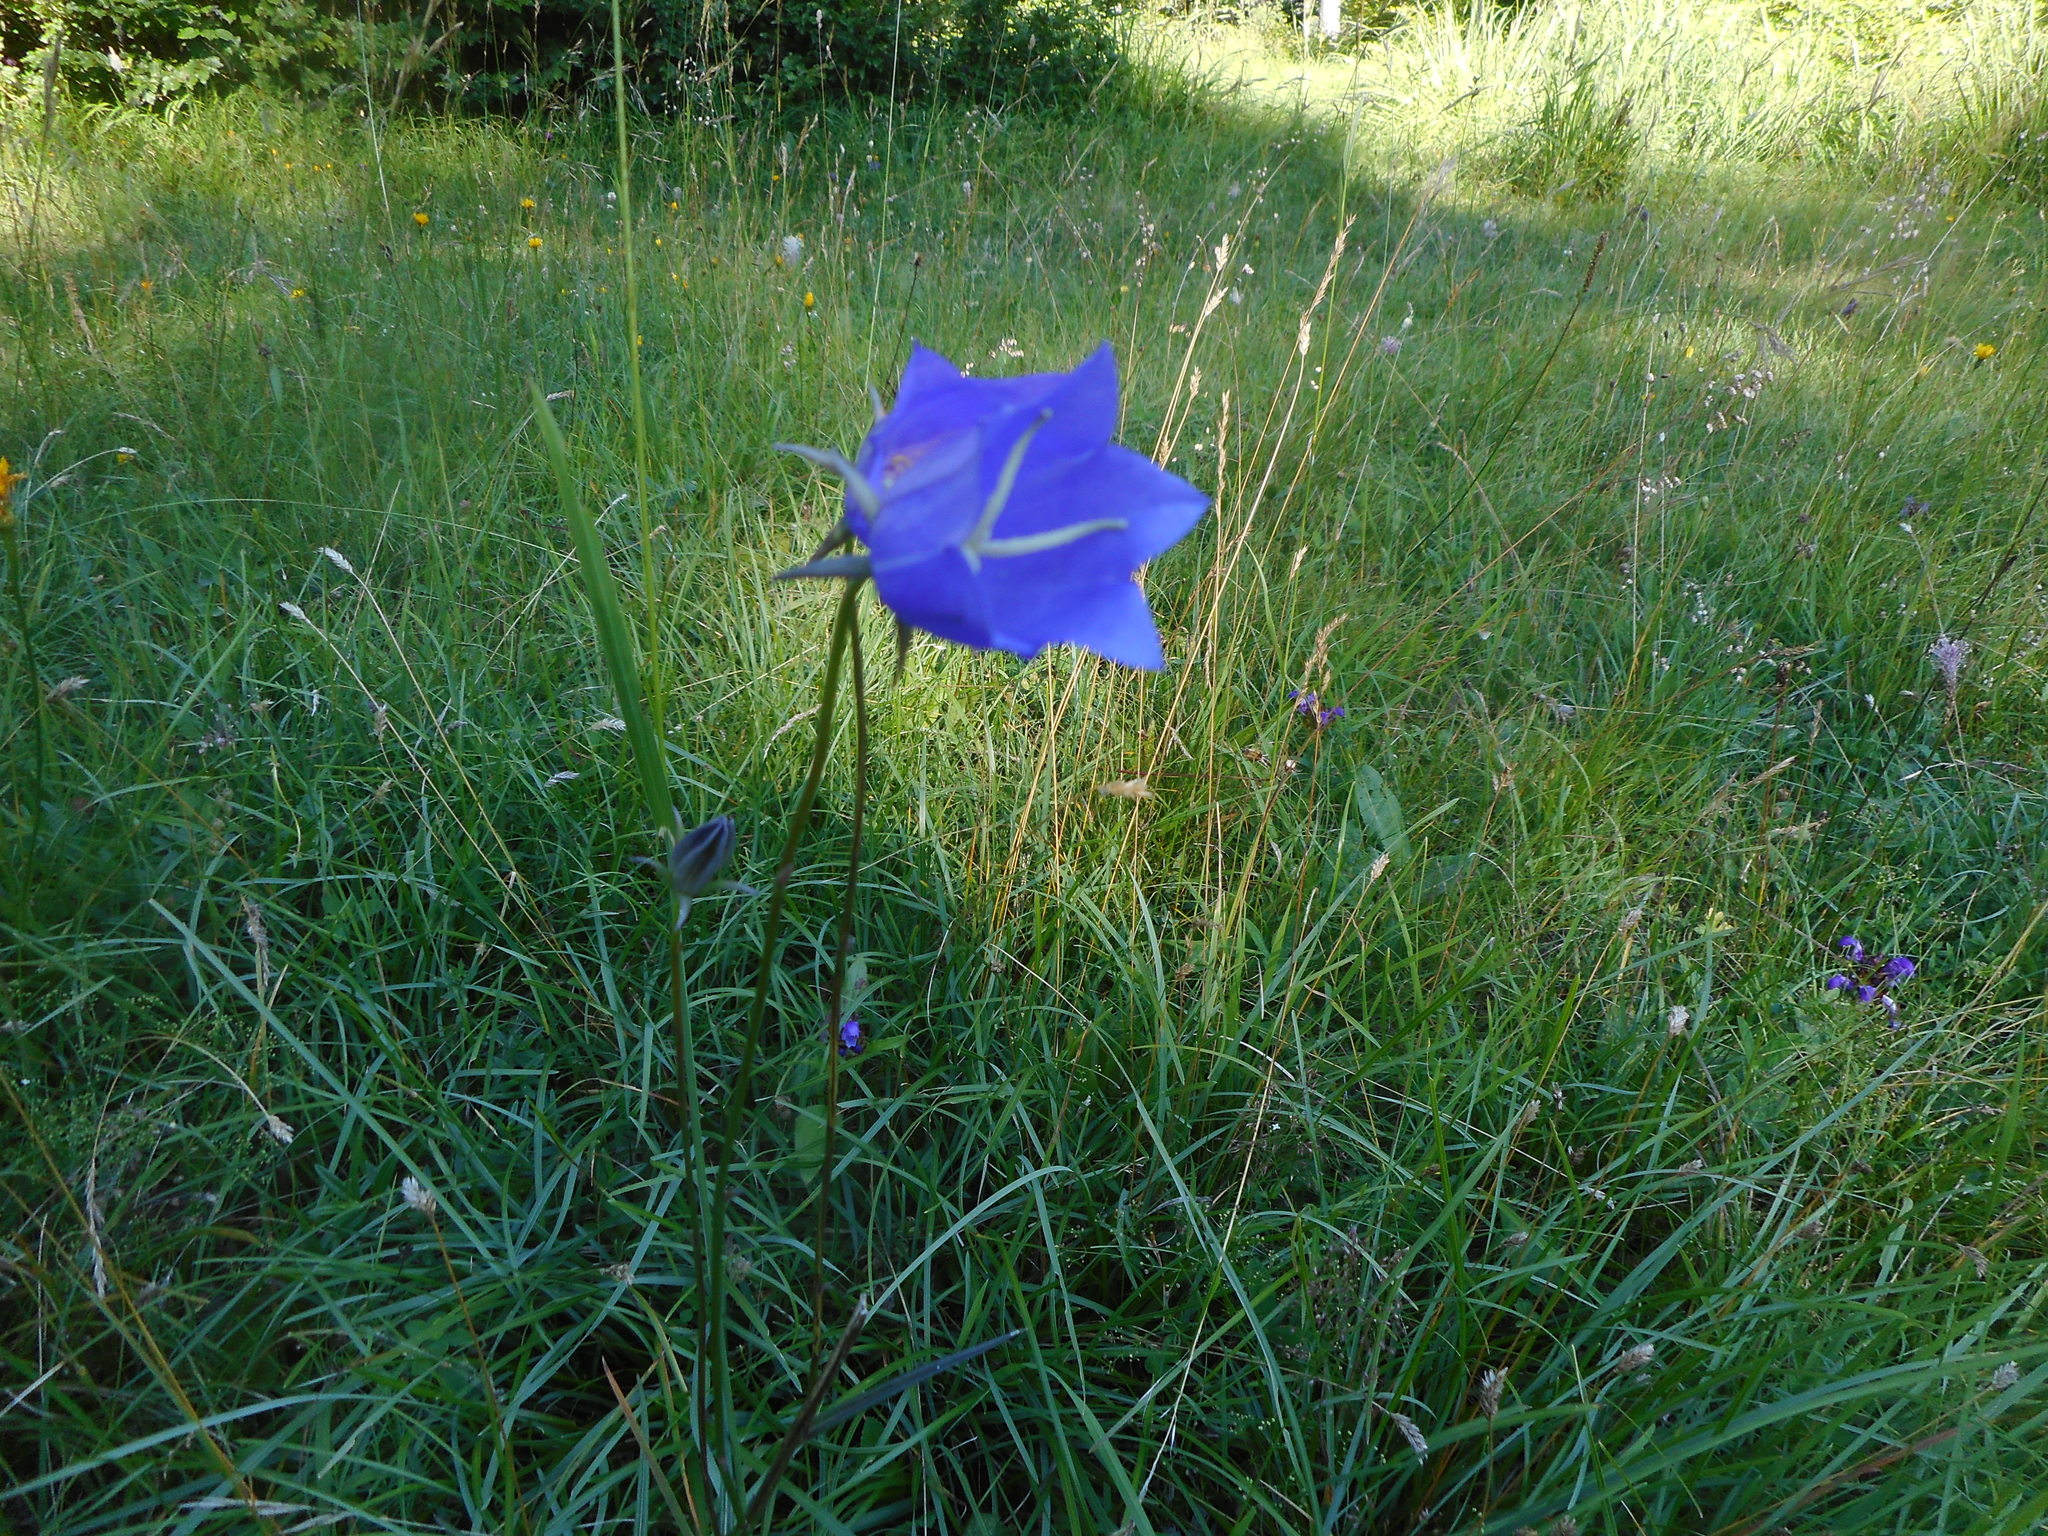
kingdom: Plantae
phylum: Tracheophyta
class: Magnoliopsida
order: Asterales
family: Campanulaceae
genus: Campanula
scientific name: Campanula persicifolia
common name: Peach-leaved bellflower
